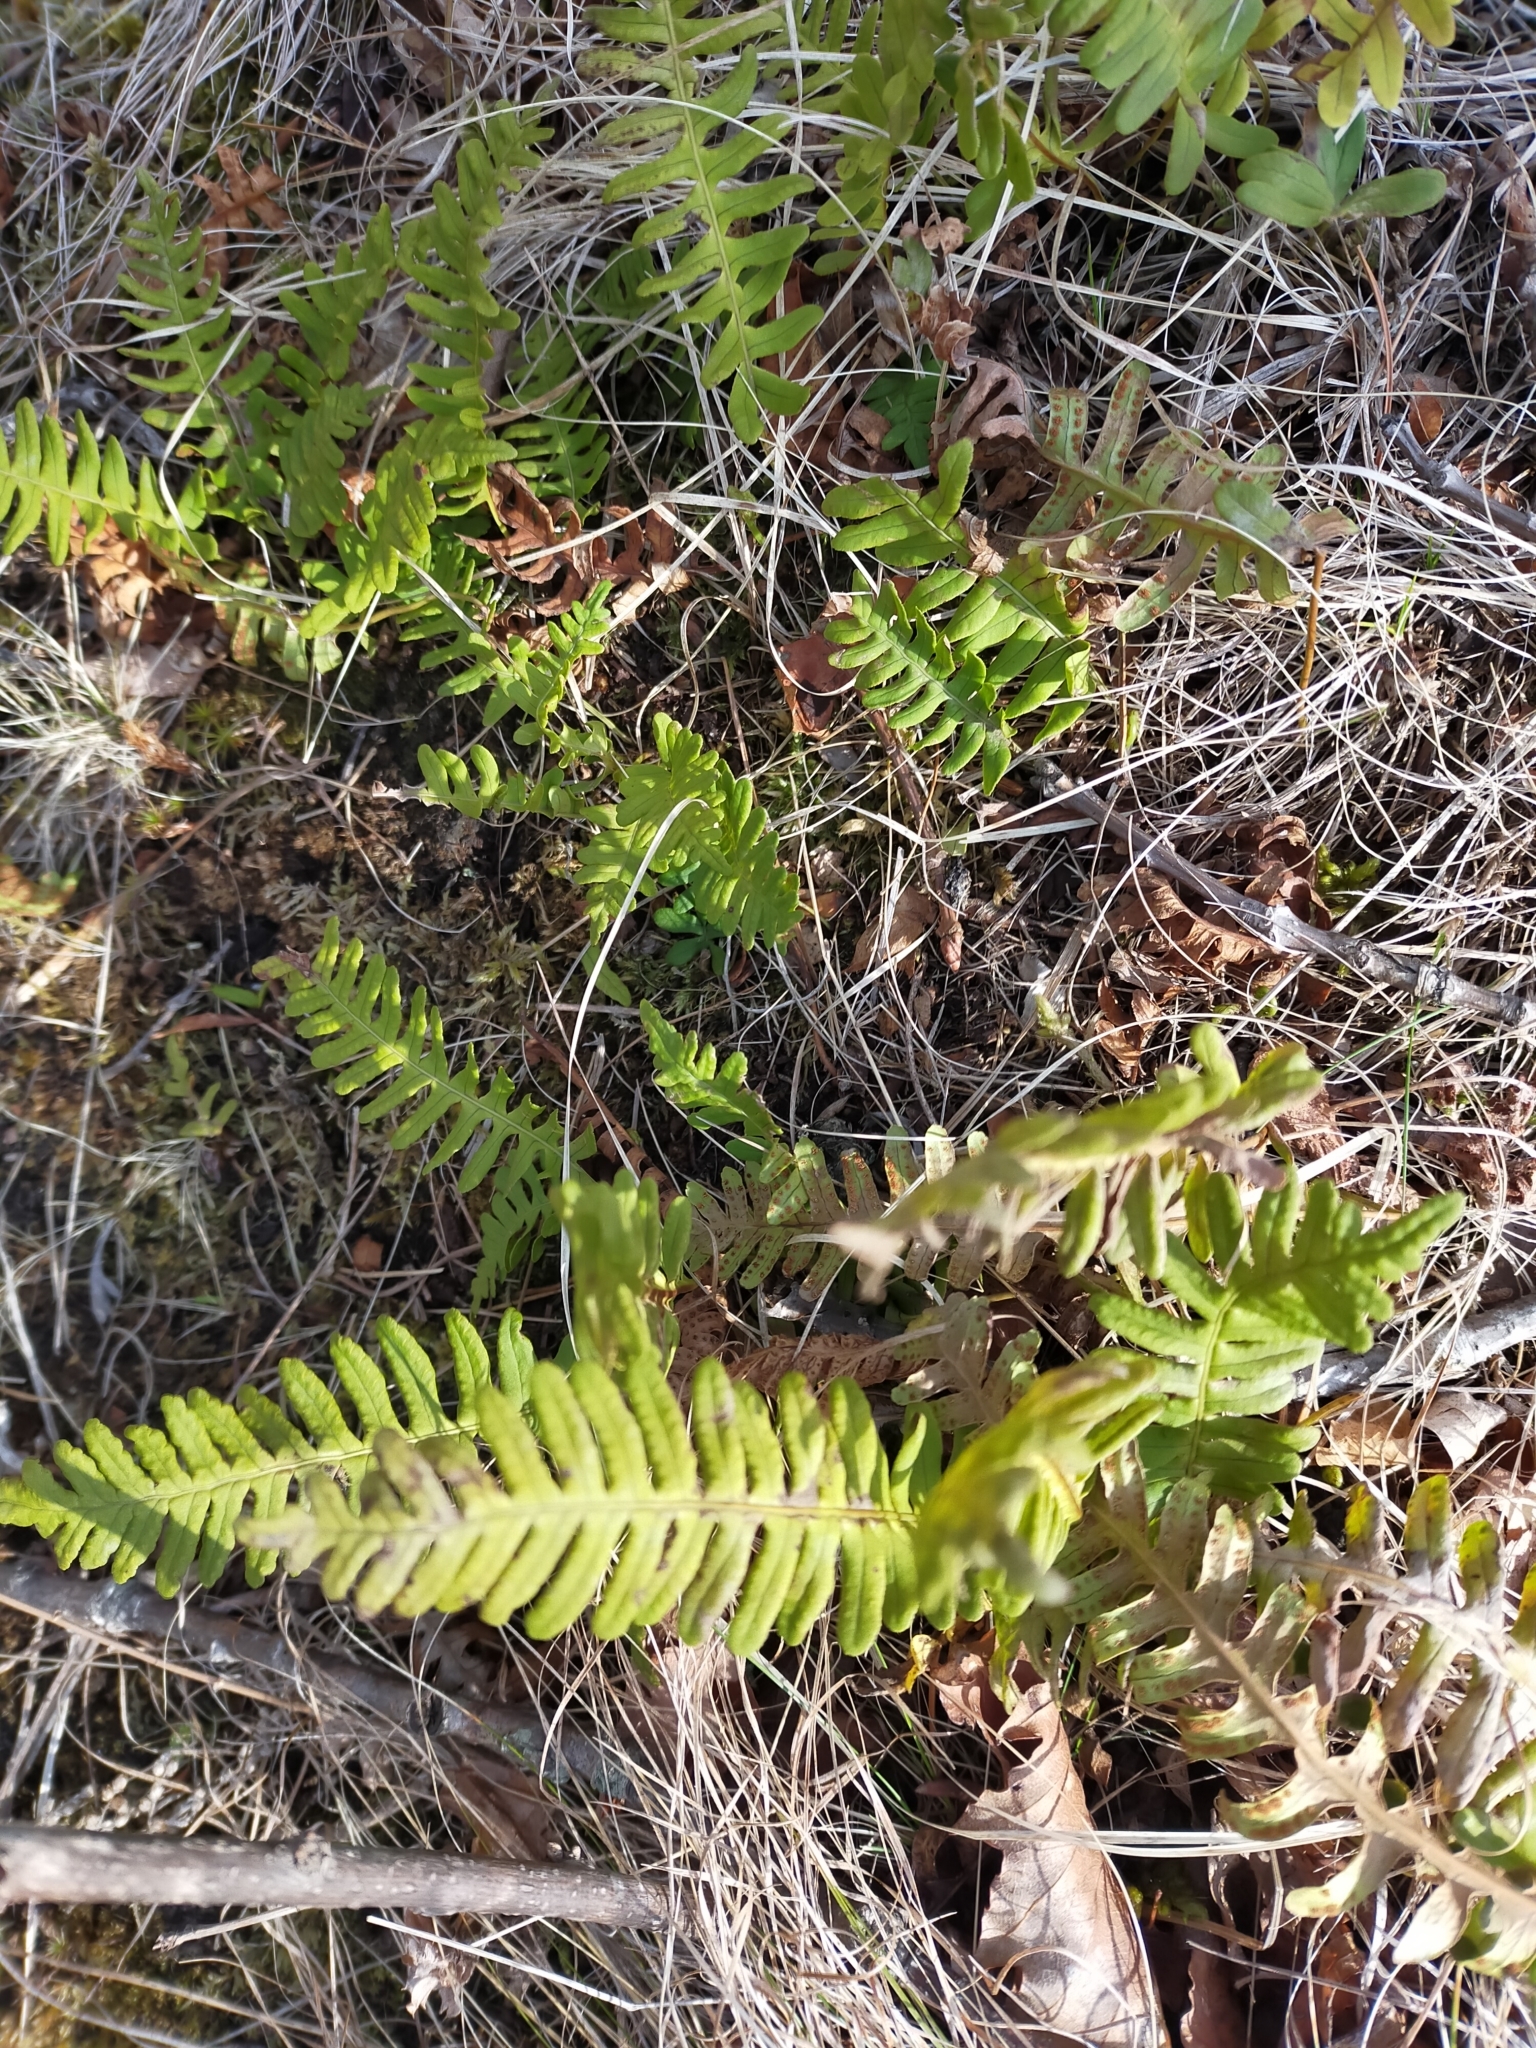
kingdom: Plantae
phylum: Tracheophyta
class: Polypodiopsida
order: Polypodiales
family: Polypodiaceae
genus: Polypodium
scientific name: Polypodium sibiricum
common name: Siberian polypody
